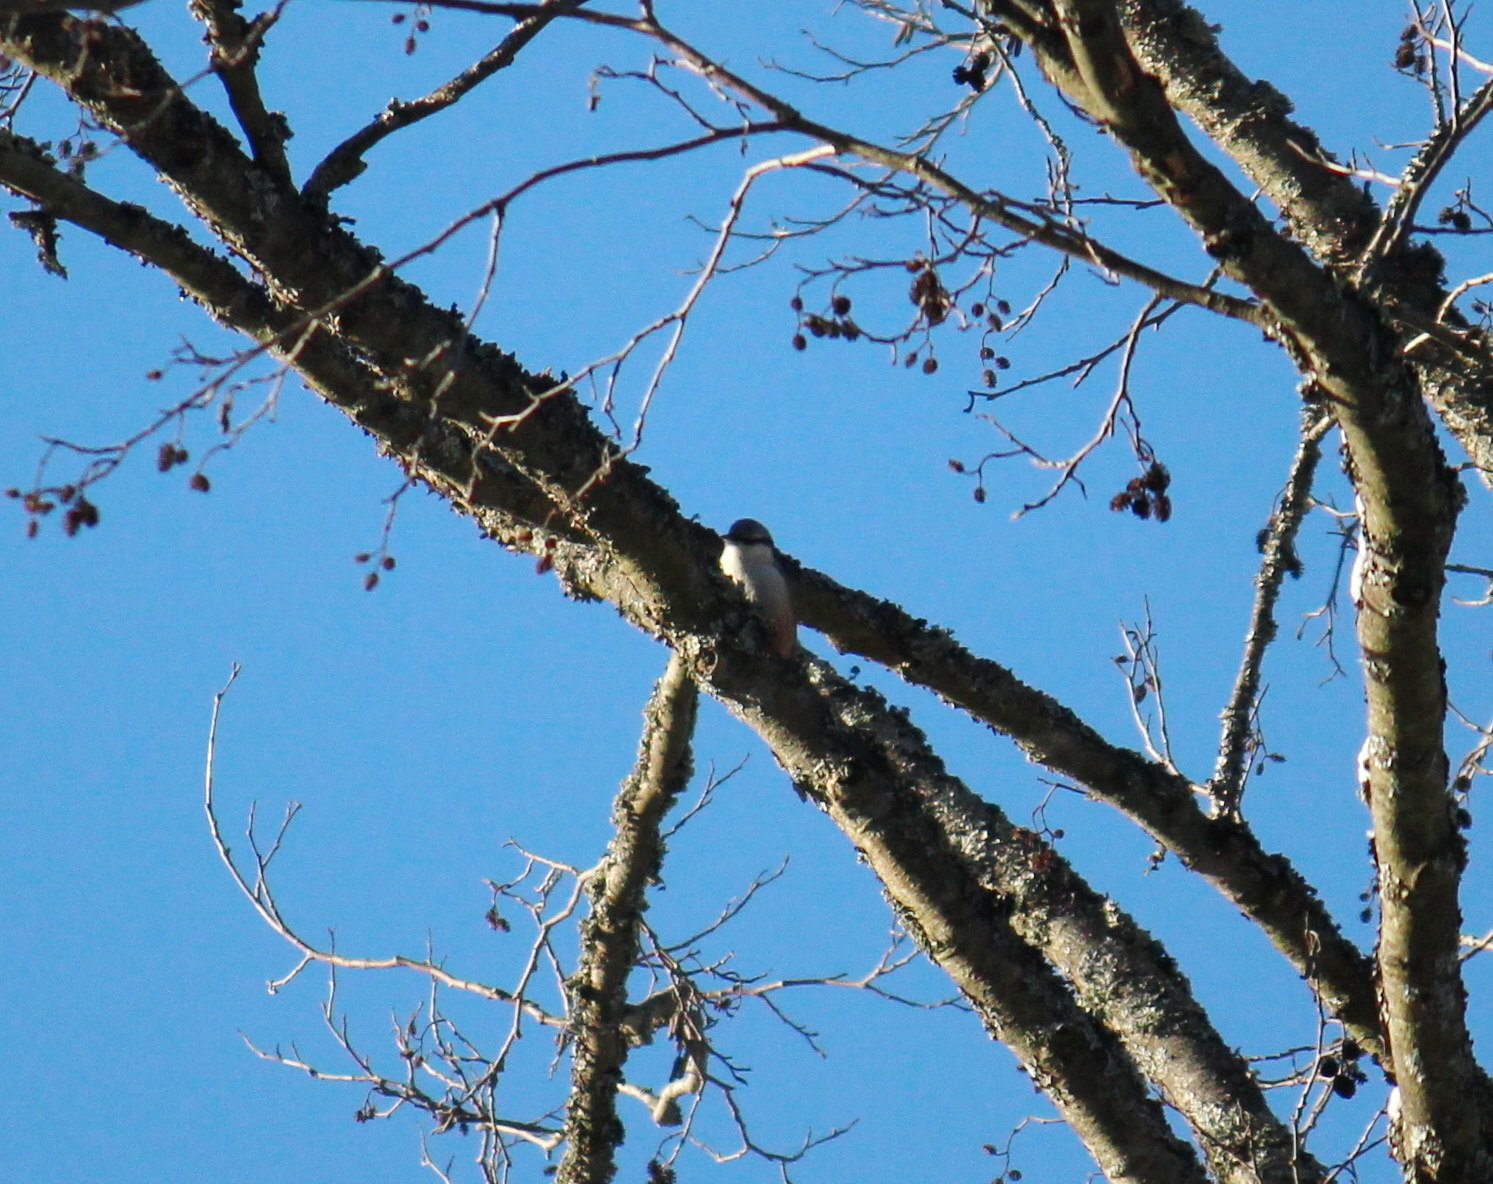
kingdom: Animalia
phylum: Chordata
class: Aves
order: Passeriformes
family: Sittidae
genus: Sitta
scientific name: Sitta europaea
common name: Eurasian nuthatch
